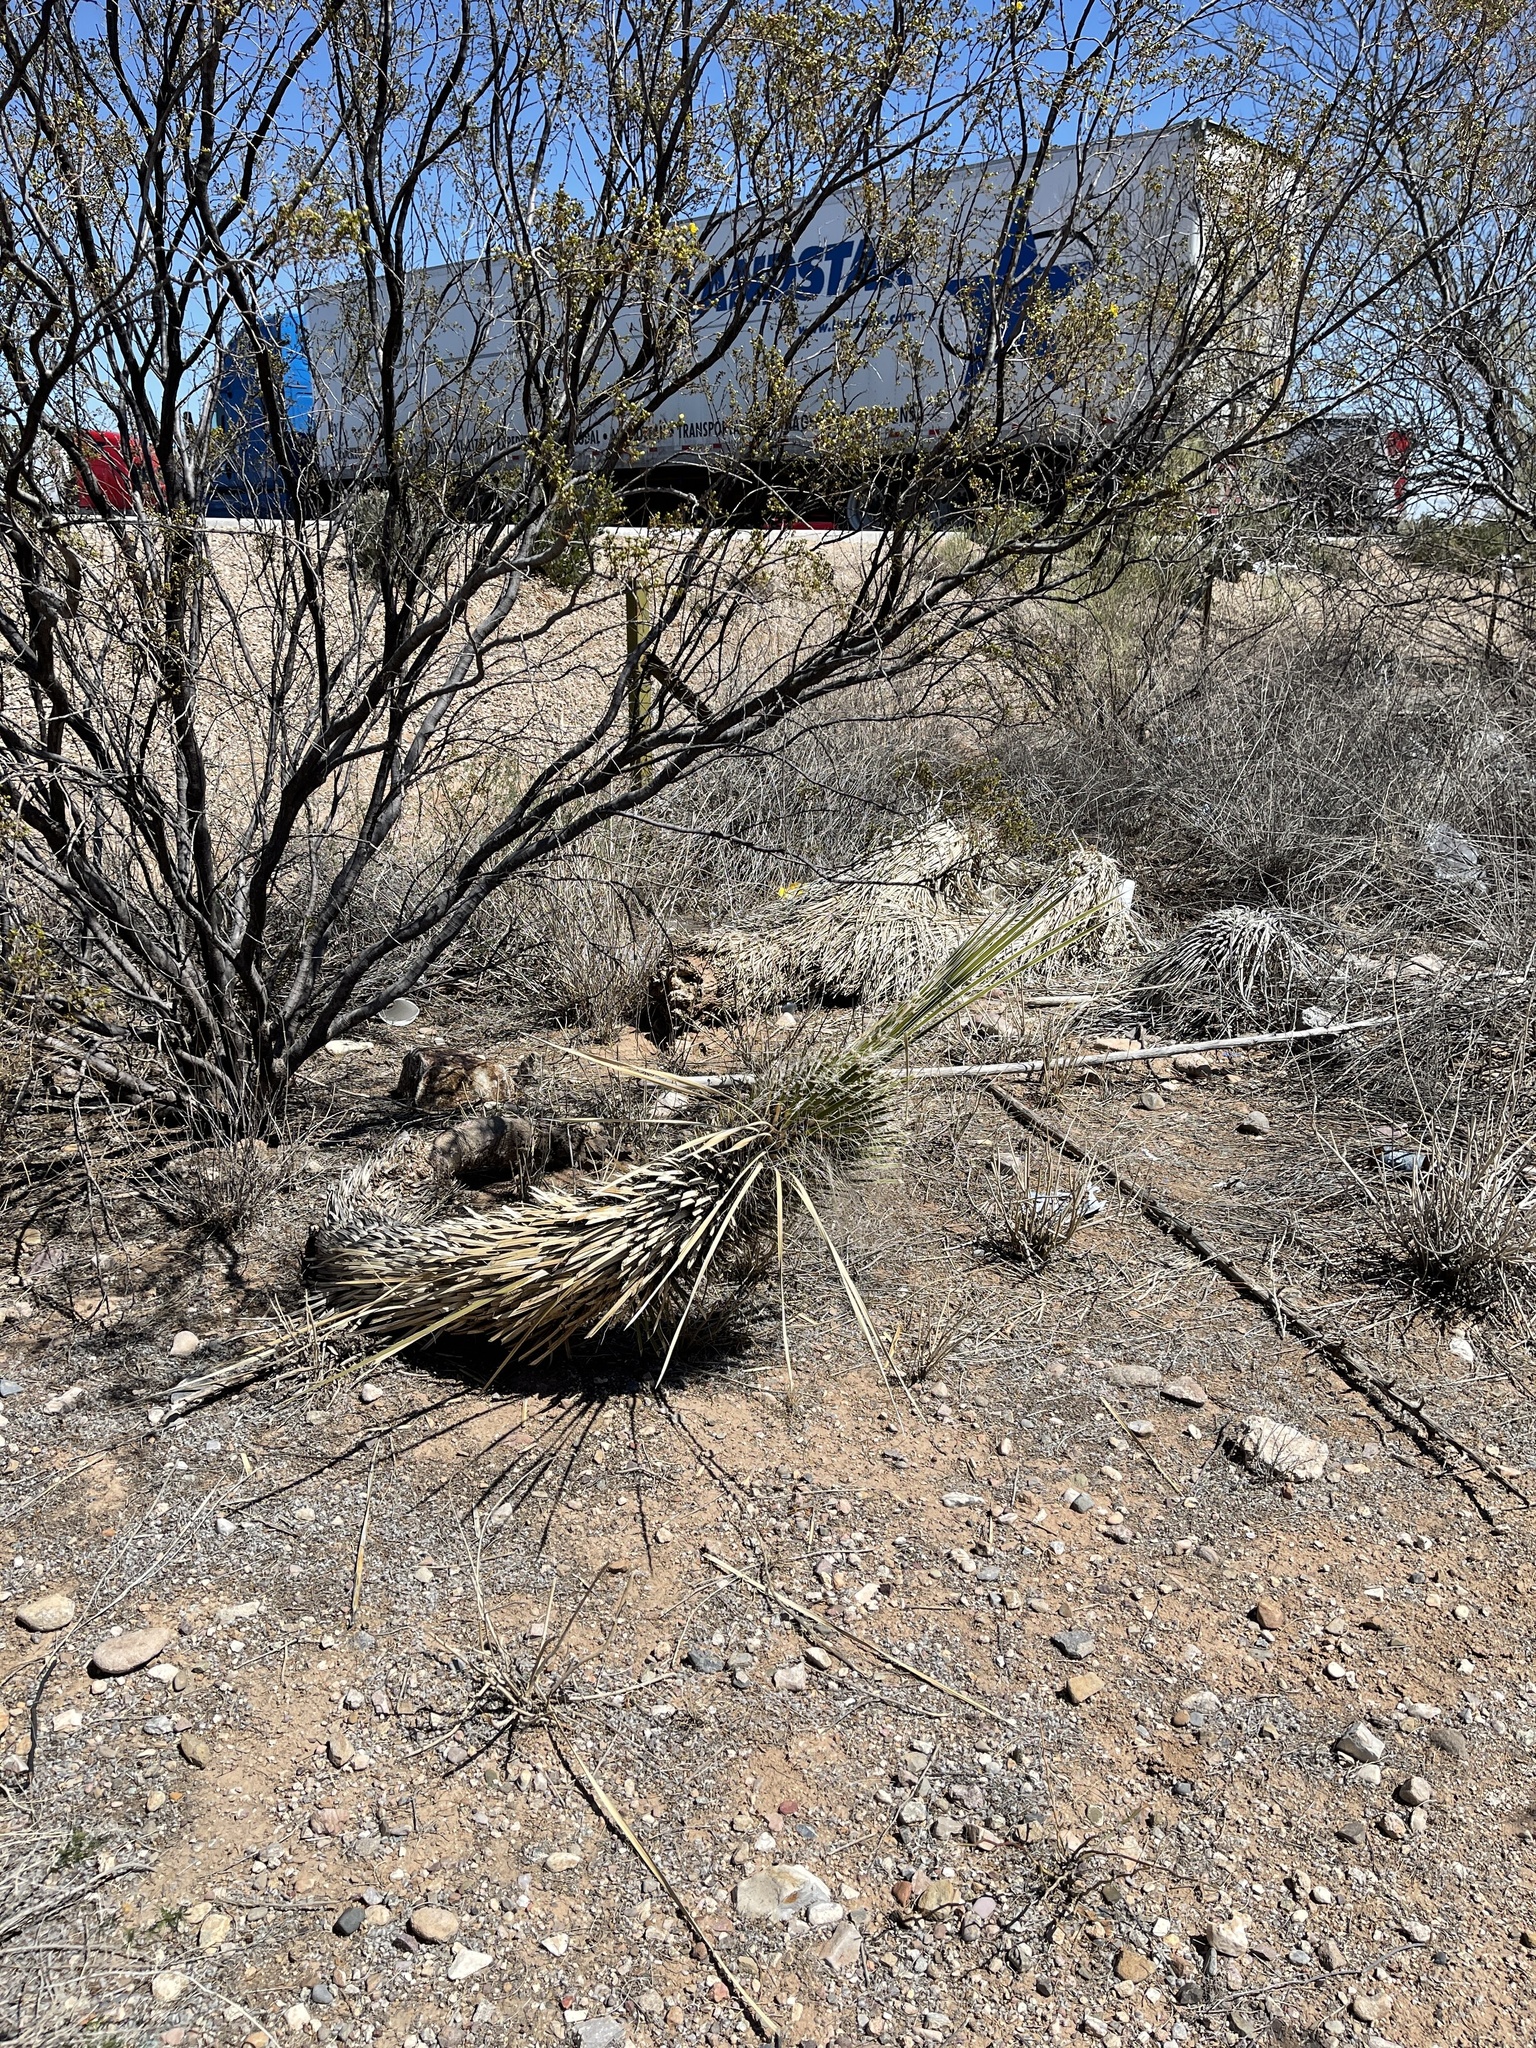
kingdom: Plantae
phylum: Tracheophyta
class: Liliopsida
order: Asparagales
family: Asparagaceae
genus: Yucca
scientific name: Yucca elata
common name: Palmella
